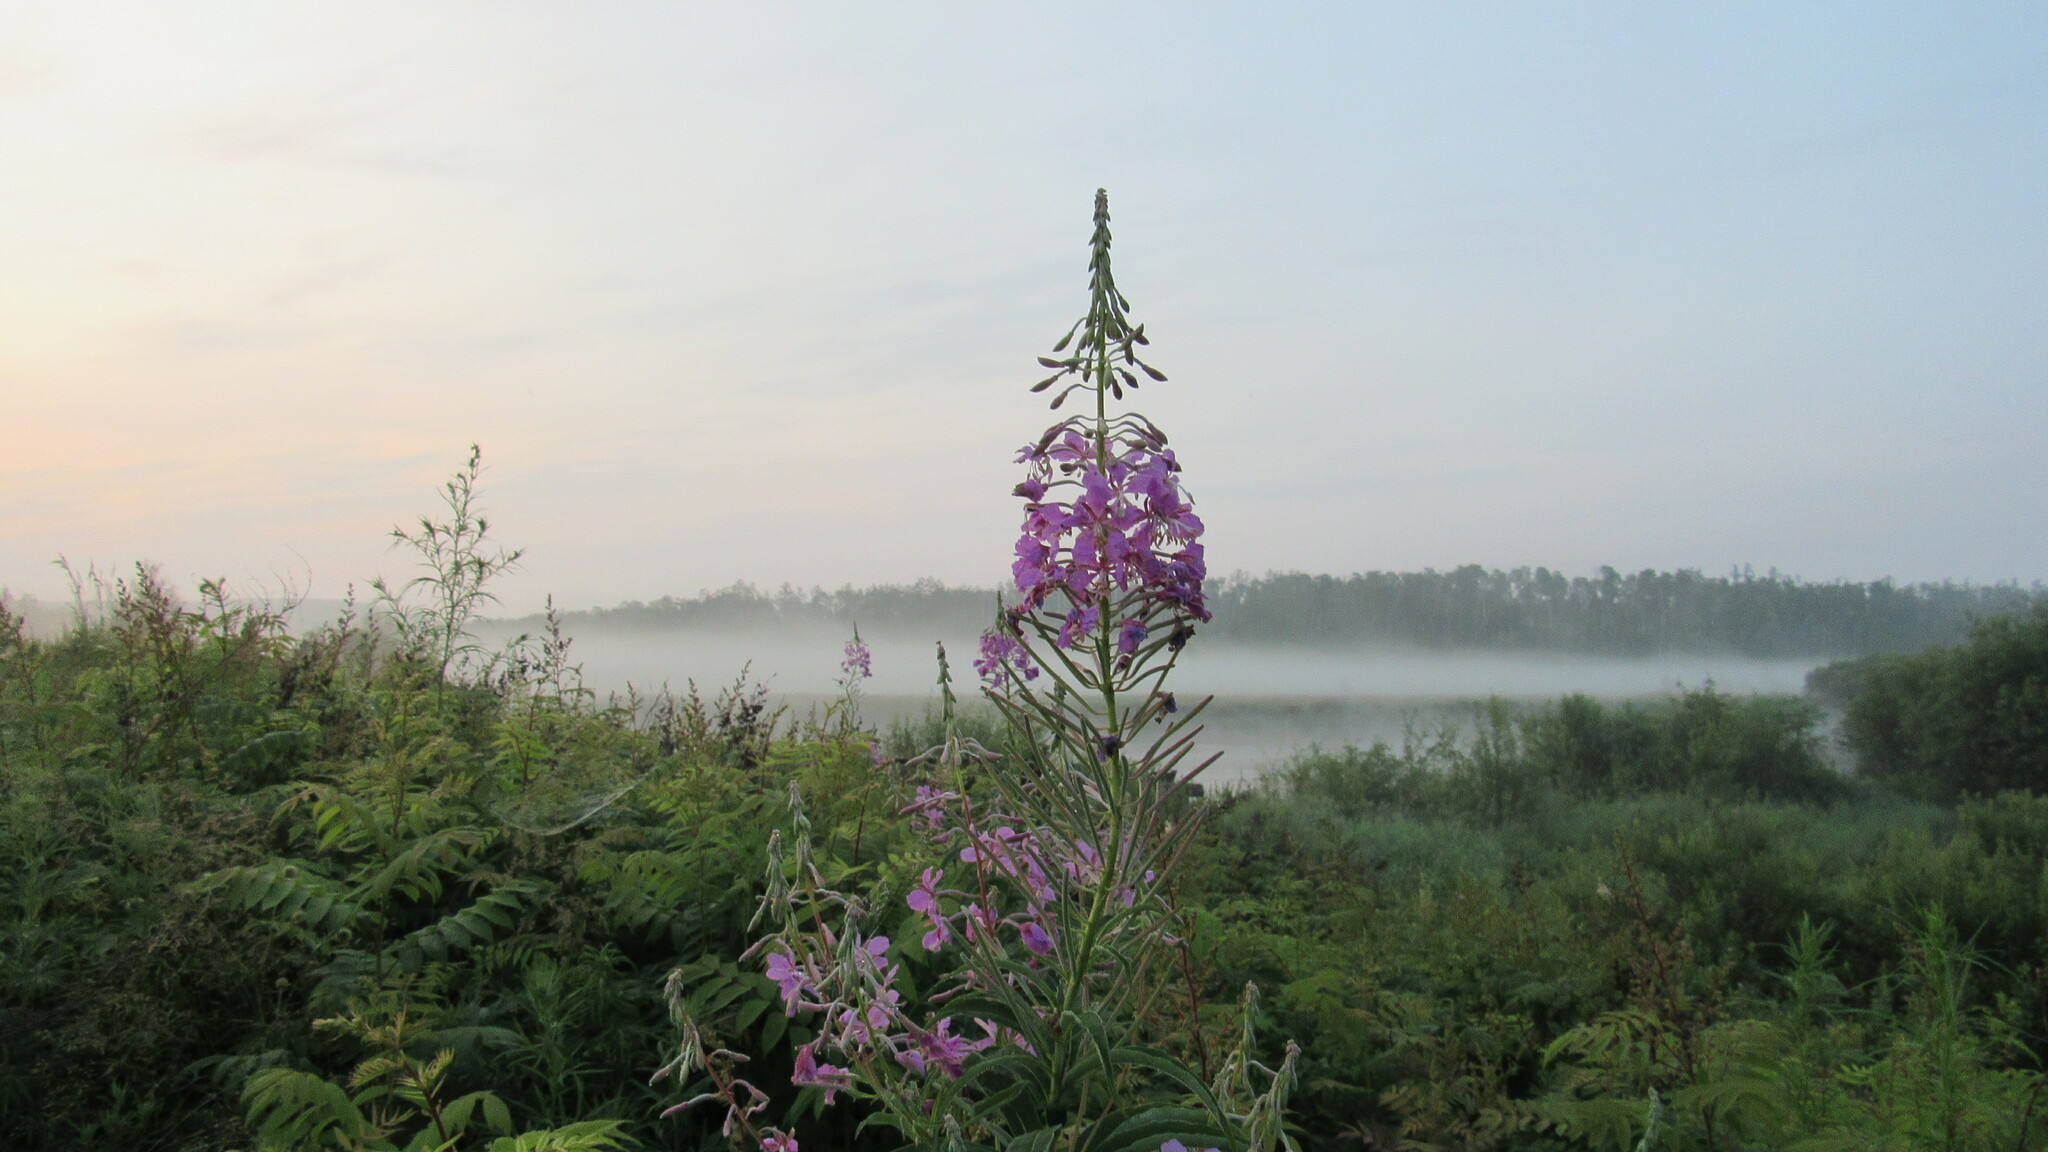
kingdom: Plantae
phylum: Tracheophyta
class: Magnoliopsida
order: Myrtales
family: Onagraceae
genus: Chamaenerion
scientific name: Chamaenerion angustifolium
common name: Fireweed
